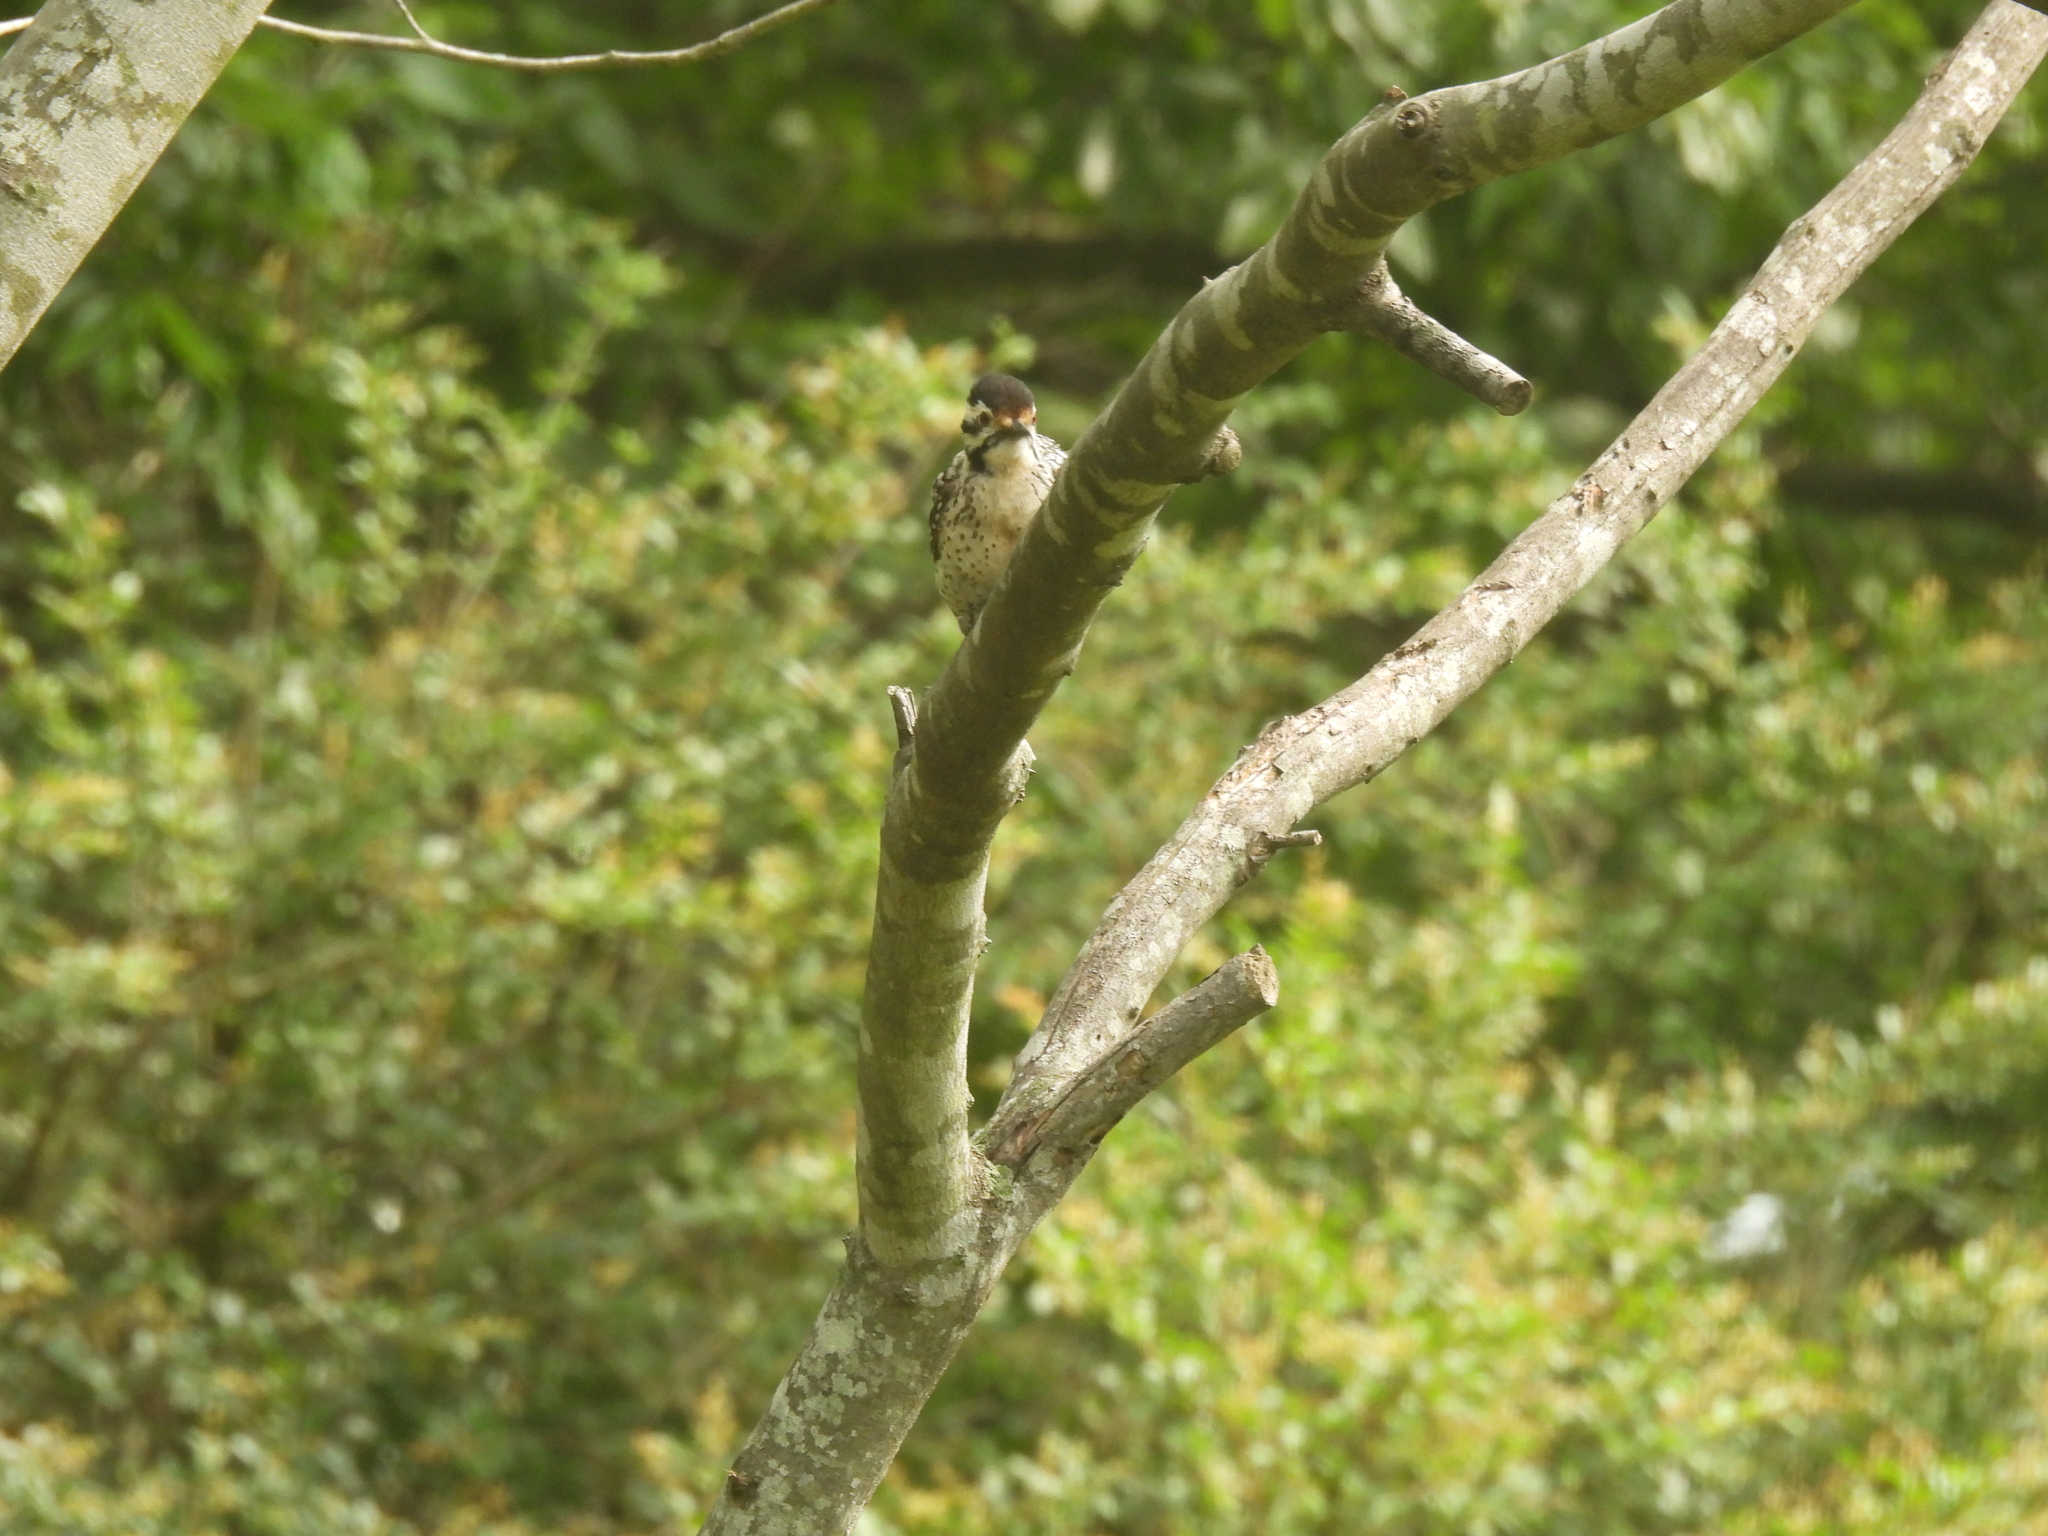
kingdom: Animalia
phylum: Chordata
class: Aves
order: Piciformes
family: Picidae
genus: Dryobates
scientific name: Dryobates scalaris
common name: Ladder-backed woodpecker
